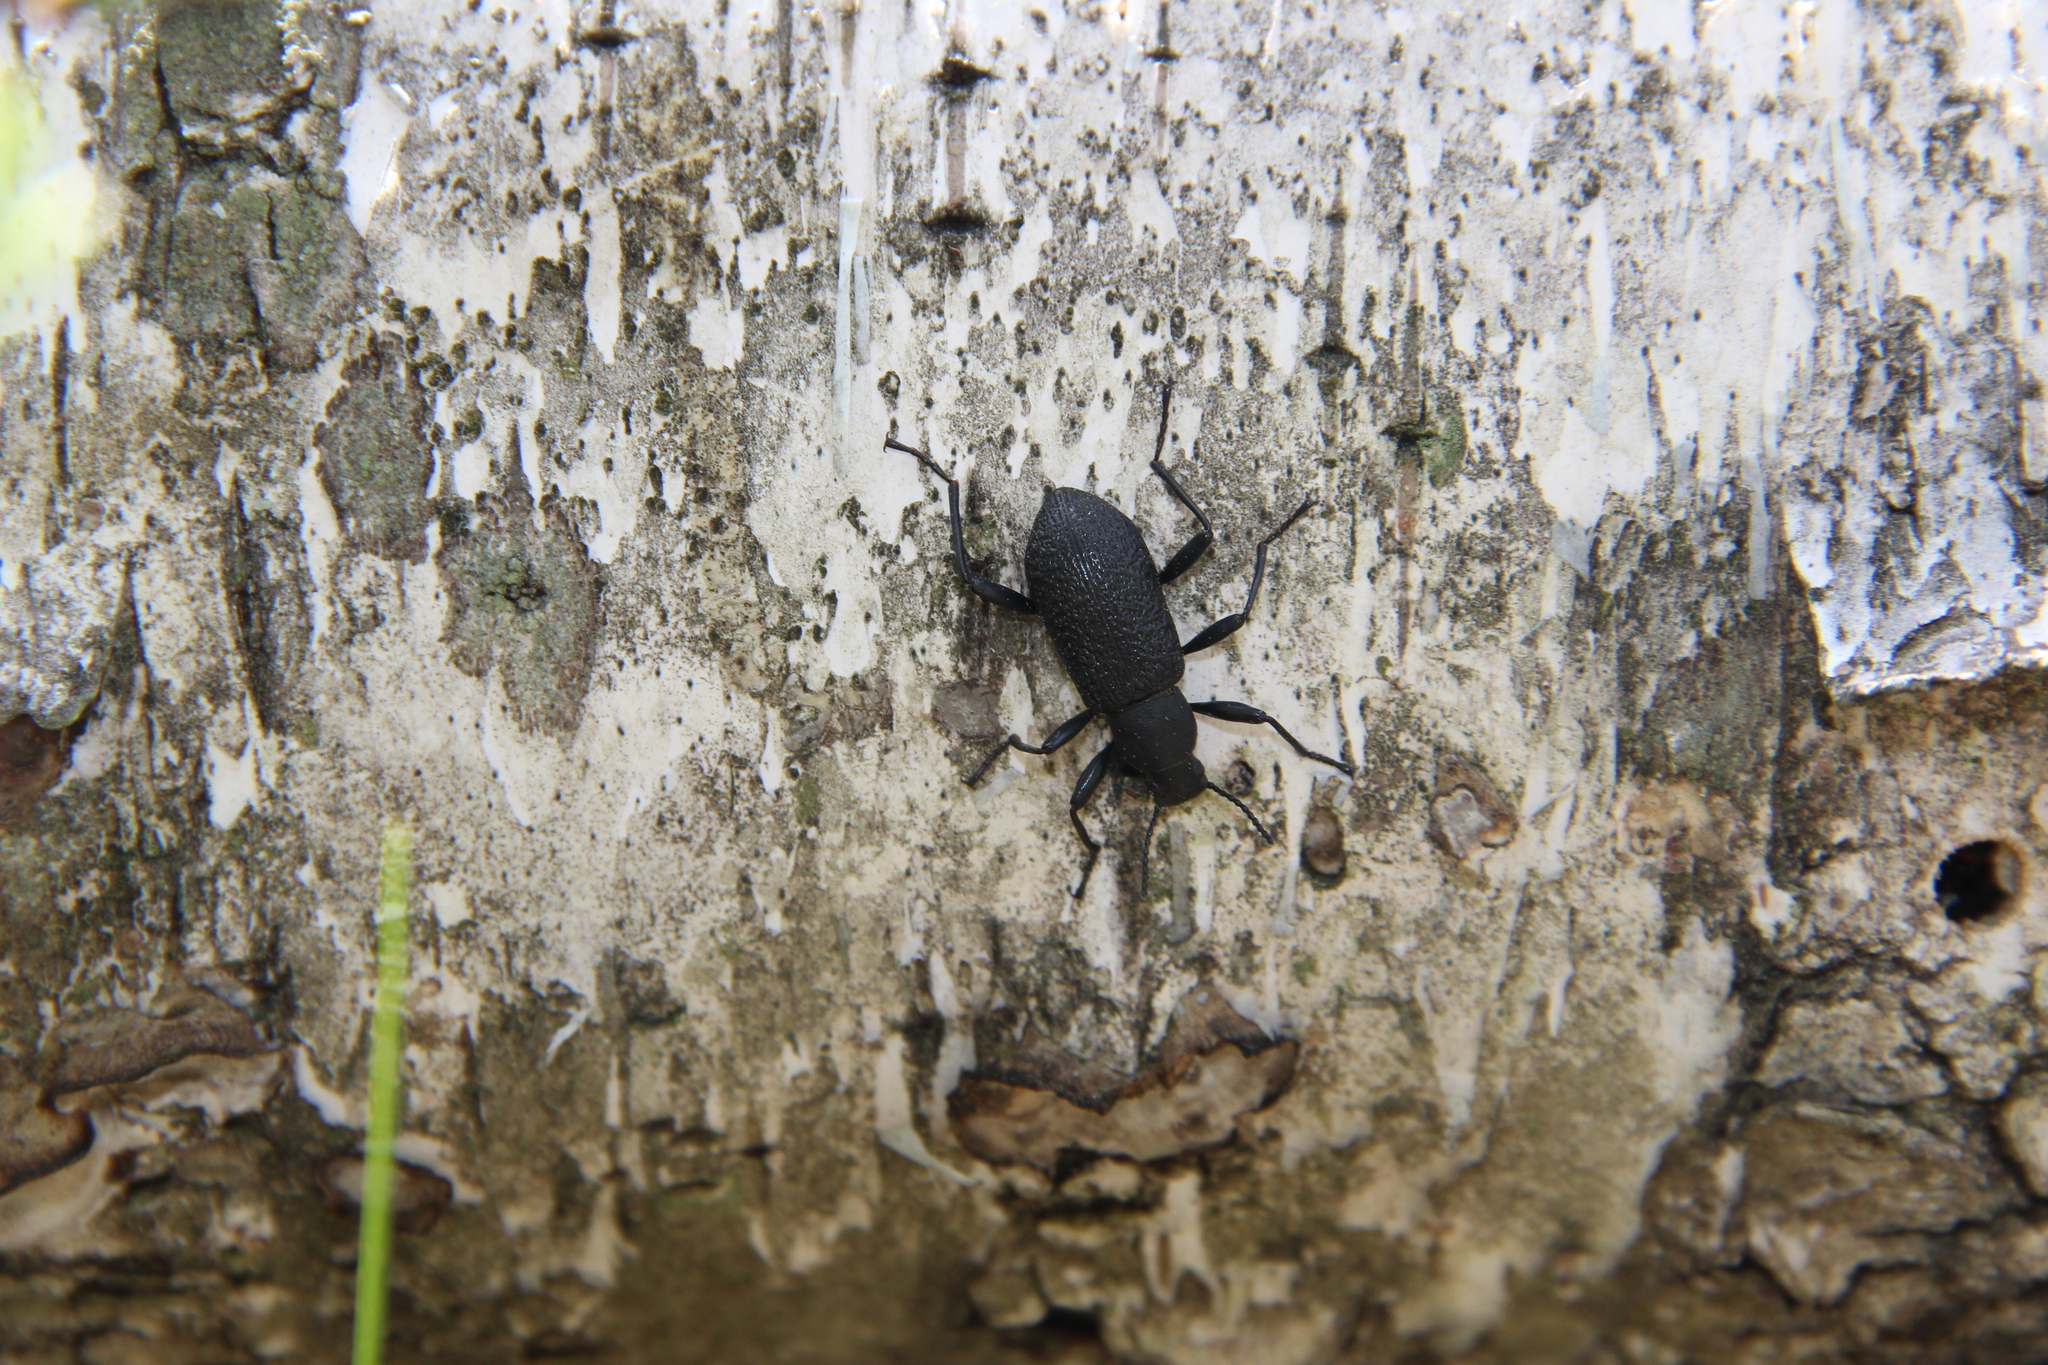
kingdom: Animalia
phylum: Arthropoda
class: Insecta
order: Coleoptera
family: Tenebrionidae
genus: Upis
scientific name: Upis ceramboides
